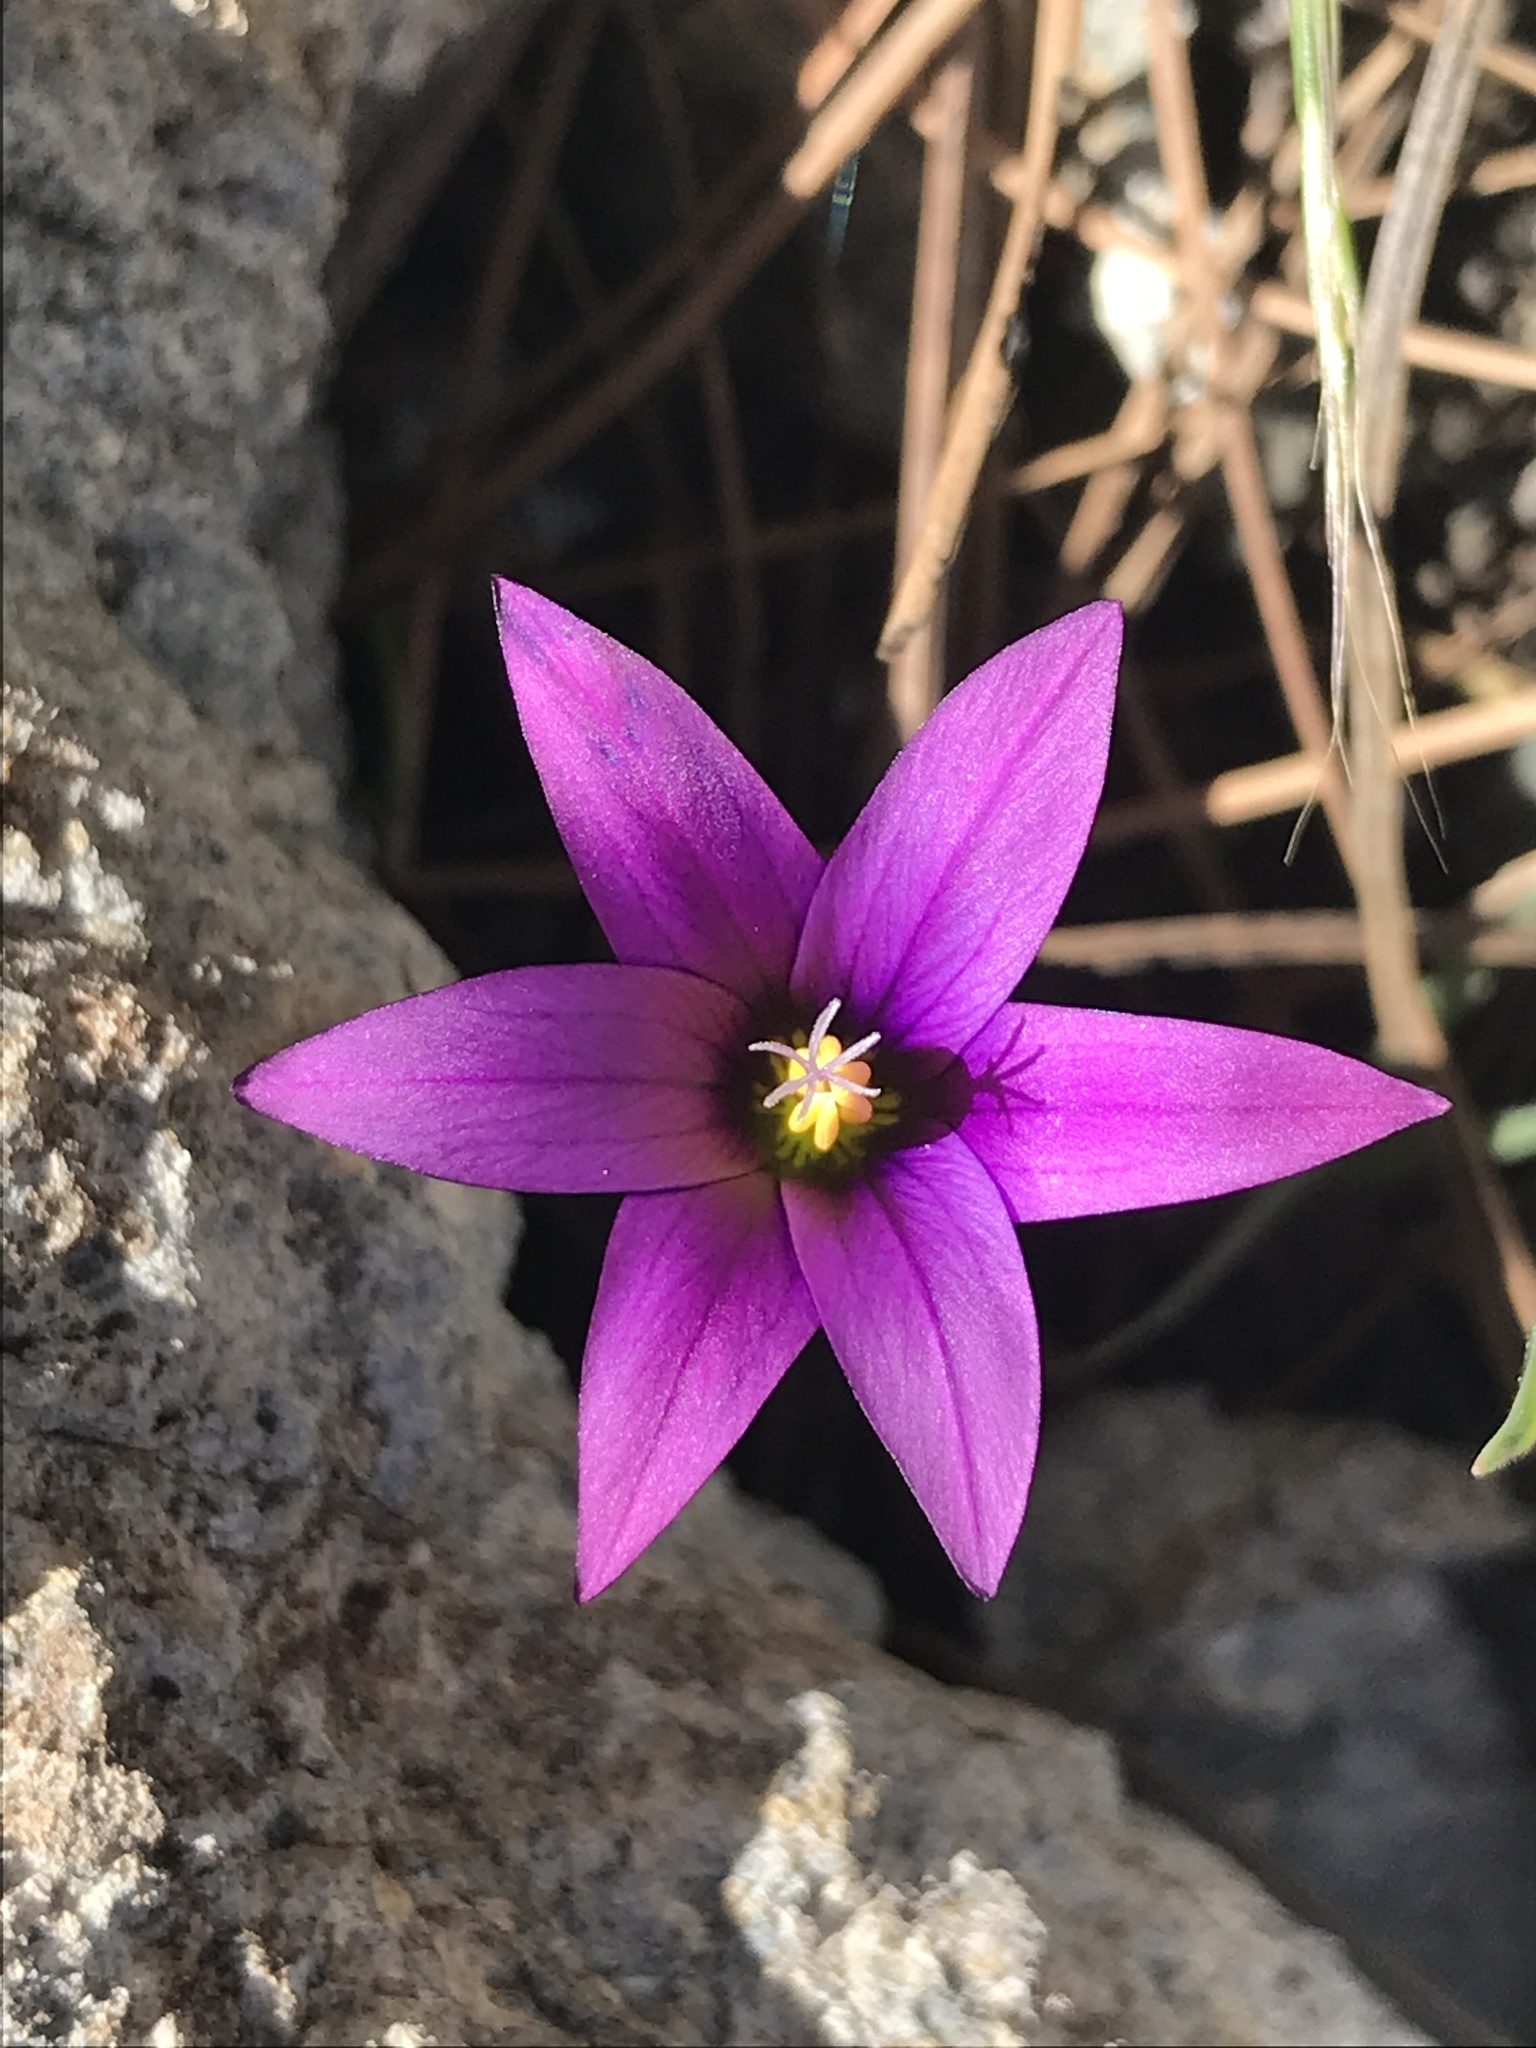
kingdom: Plantae
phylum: Tracheophyta
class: Liliopsida
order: Asparagales
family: Iridaceae
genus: Romulea
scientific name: Romulea columnae
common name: Sand-crocus
